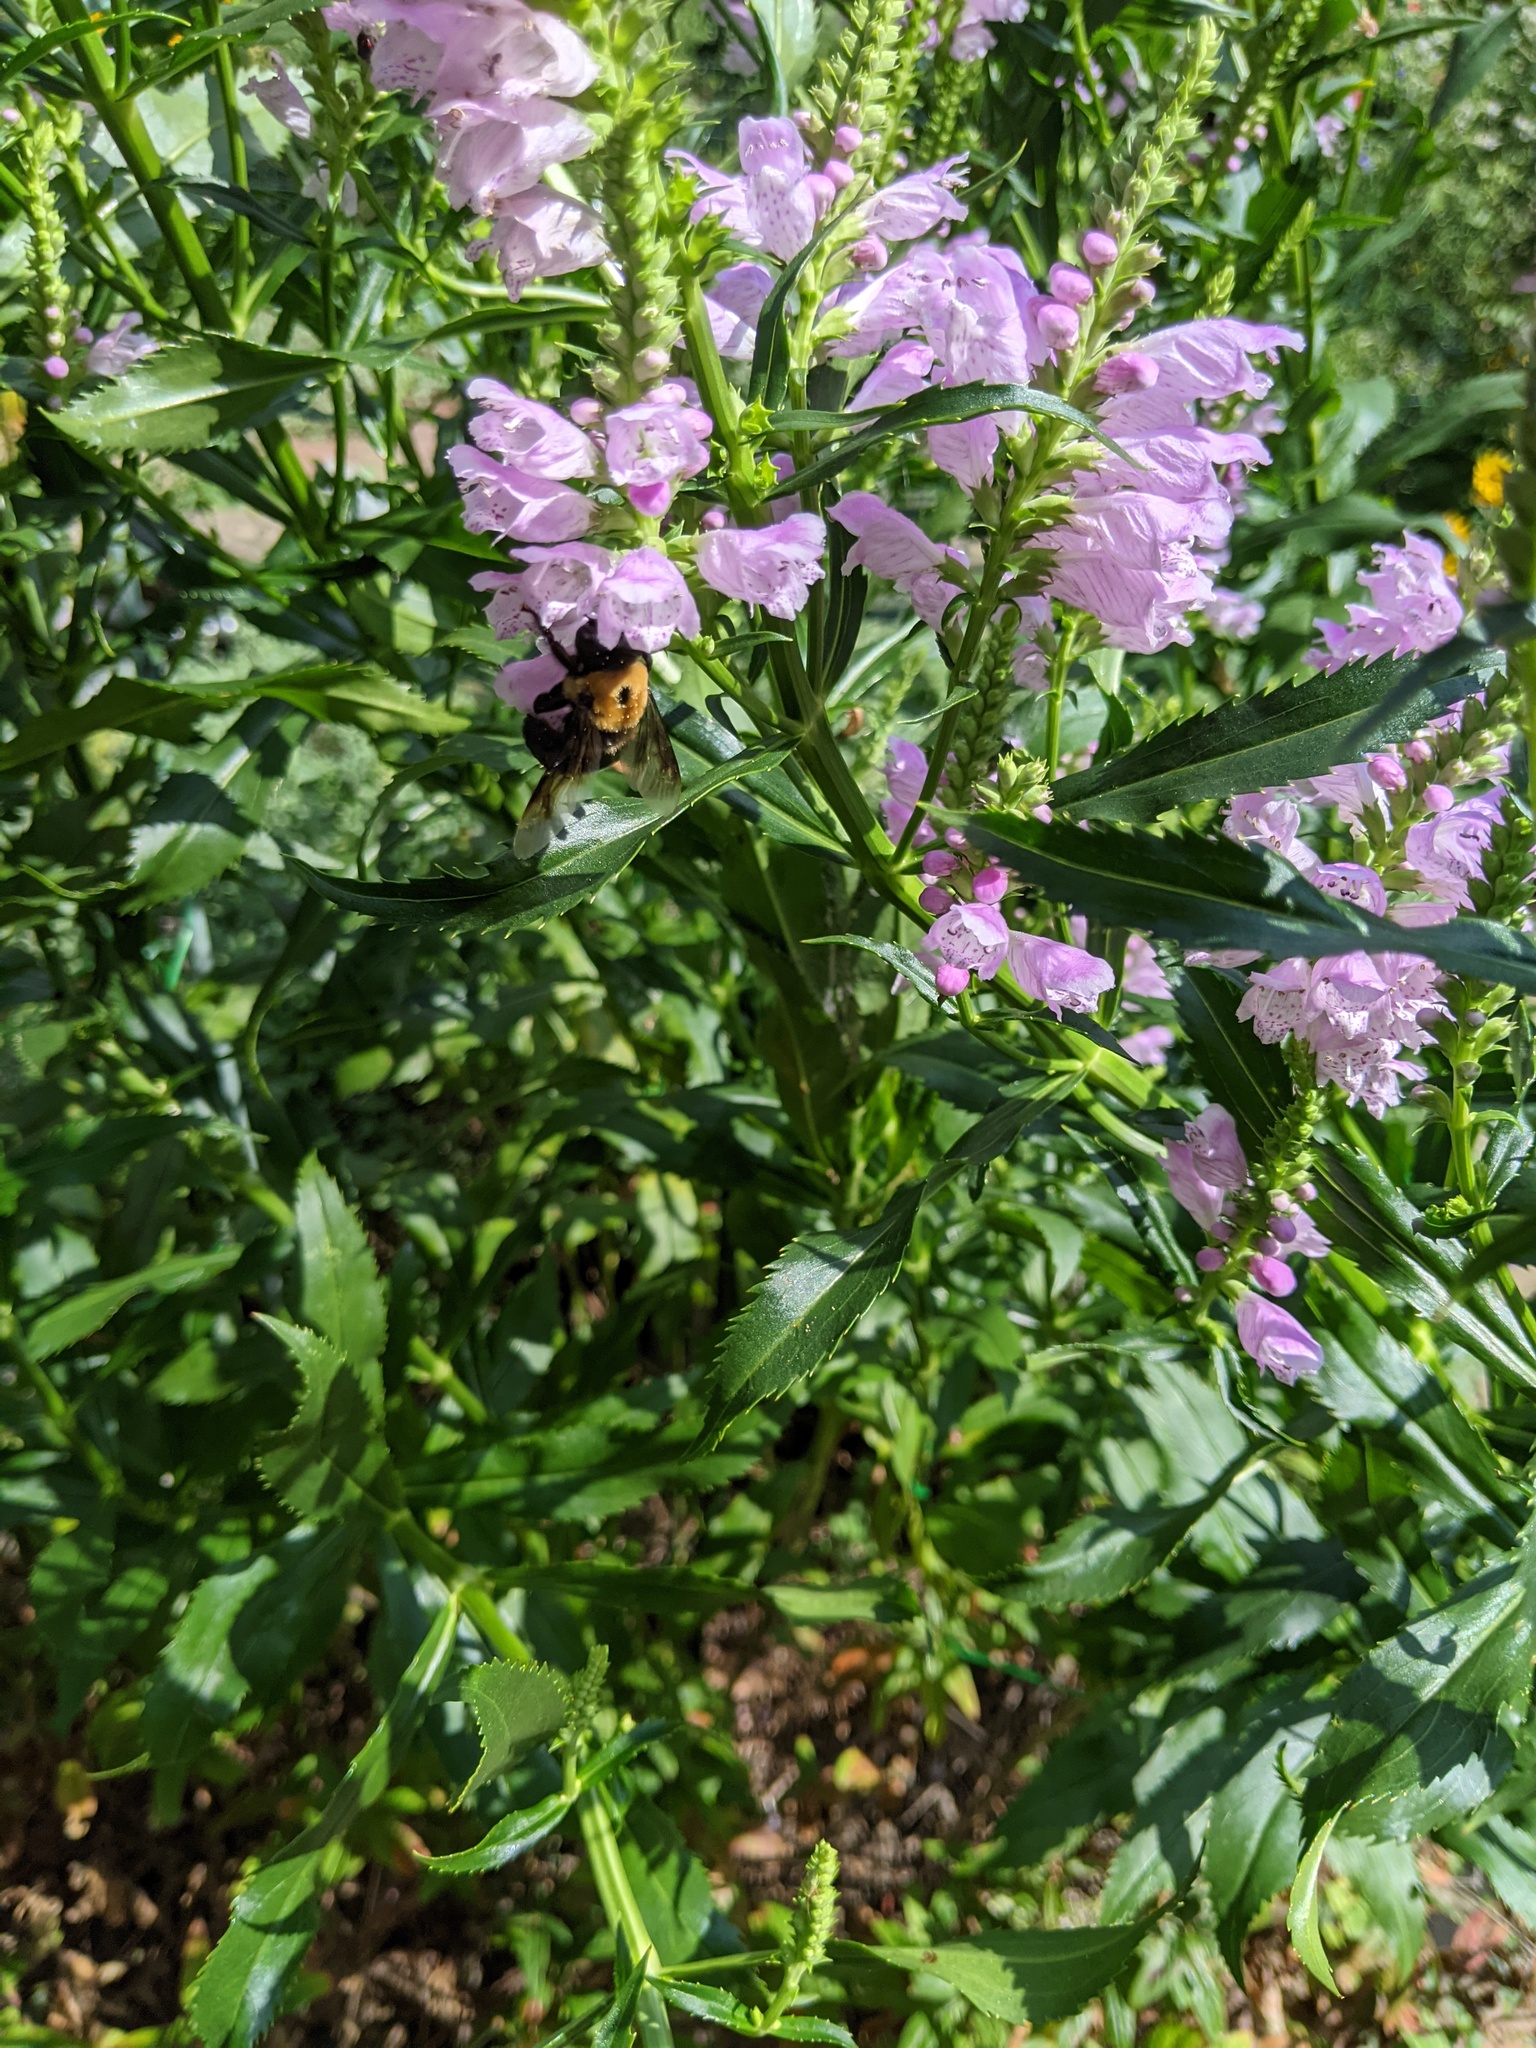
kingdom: Animalia
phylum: Arthropoda
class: Insecta
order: Hymenoptera
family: Apidae
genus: Xylocopa
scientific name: Xylocopa virginica
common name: Carpenter bee
